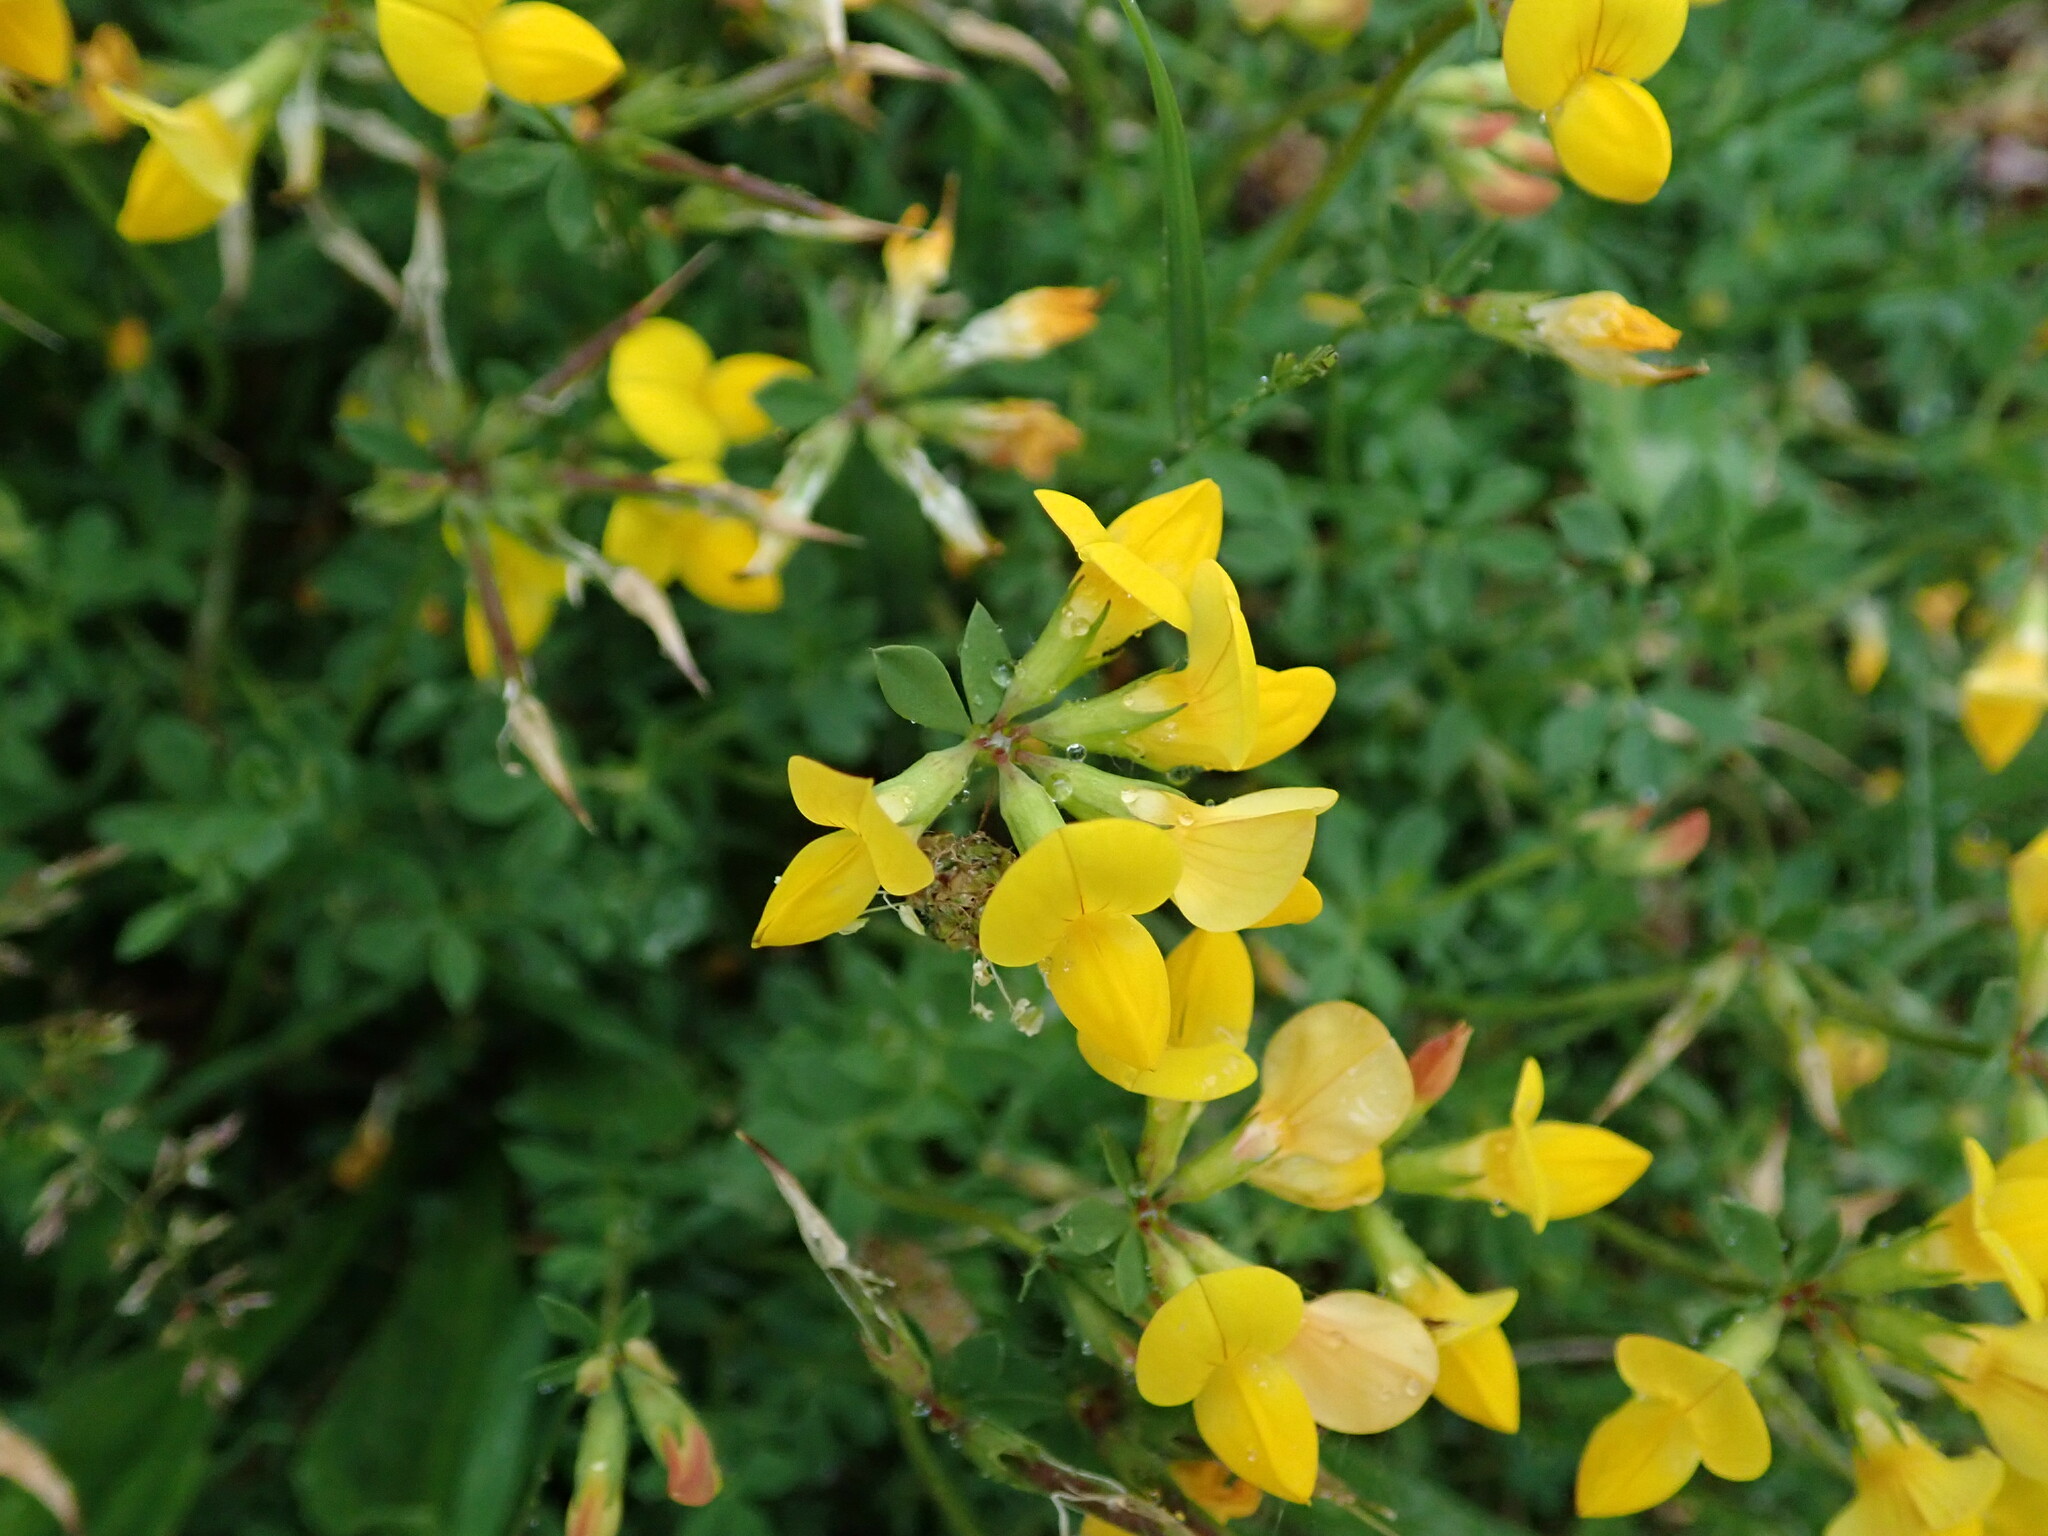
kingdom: Plantae
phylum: Tracheophyta
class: Magnoliopsida
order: Fabales
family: Fabaceae
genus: Lotus
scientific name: Lotus corniculatus
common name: Common bird's-foot-trefoil
